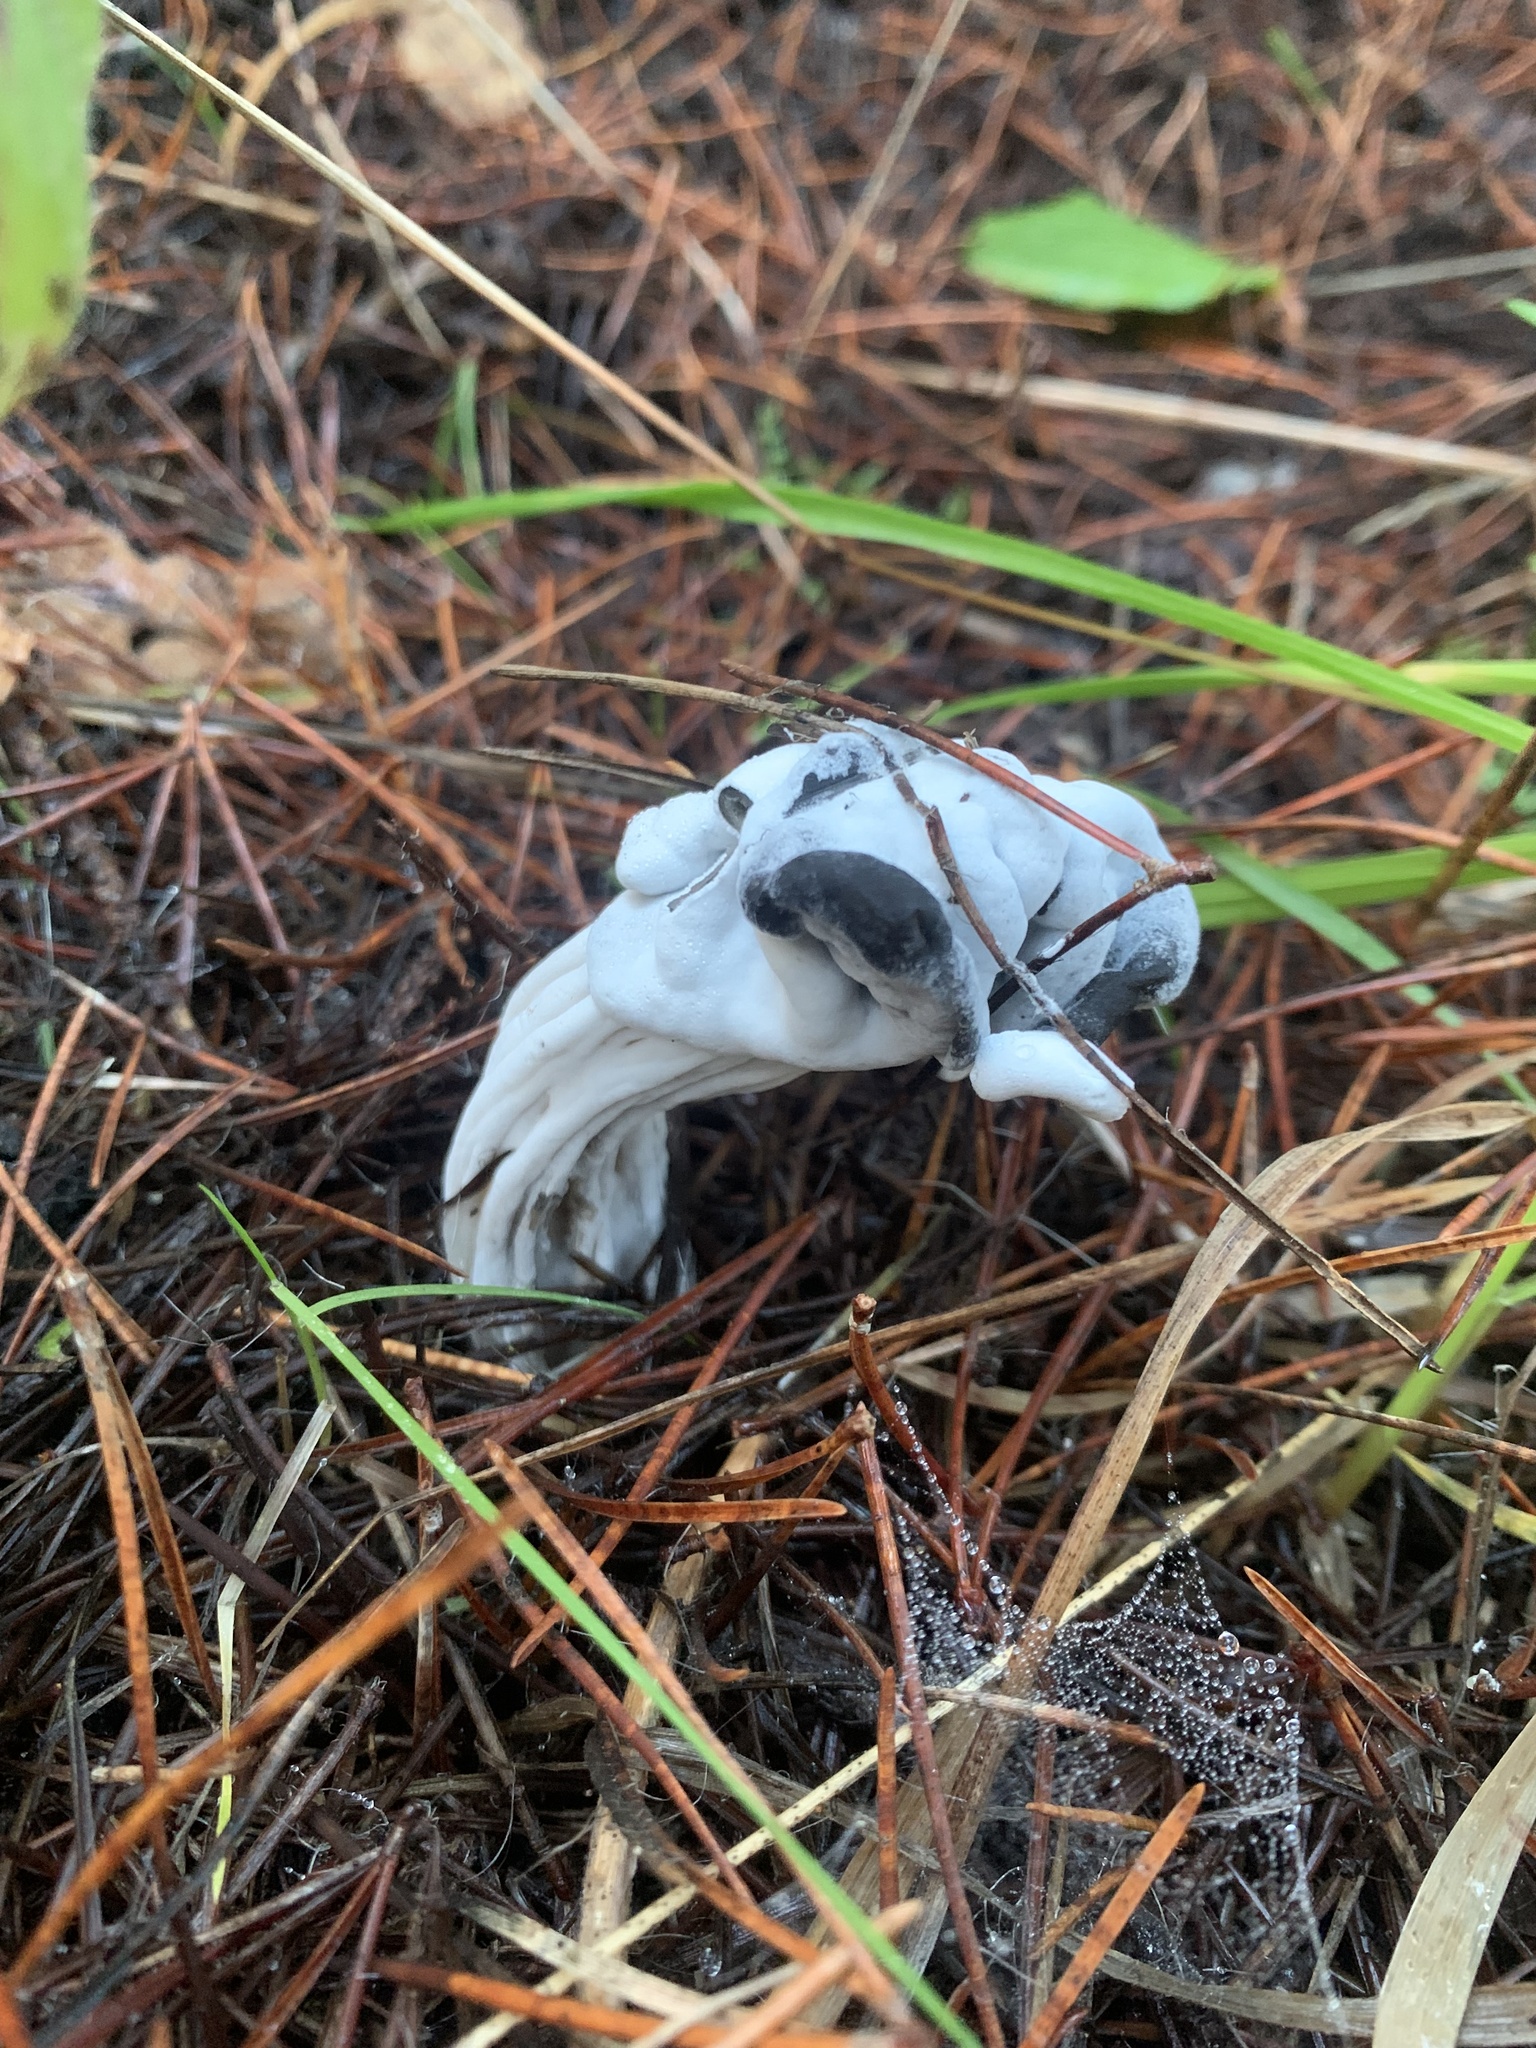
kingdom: Fungi
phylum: Ascomycota
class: Sordariomycetes
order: Hypocreales
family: Hypocreaceae
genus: Hypomyces
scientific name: Hypomyces cervinus
